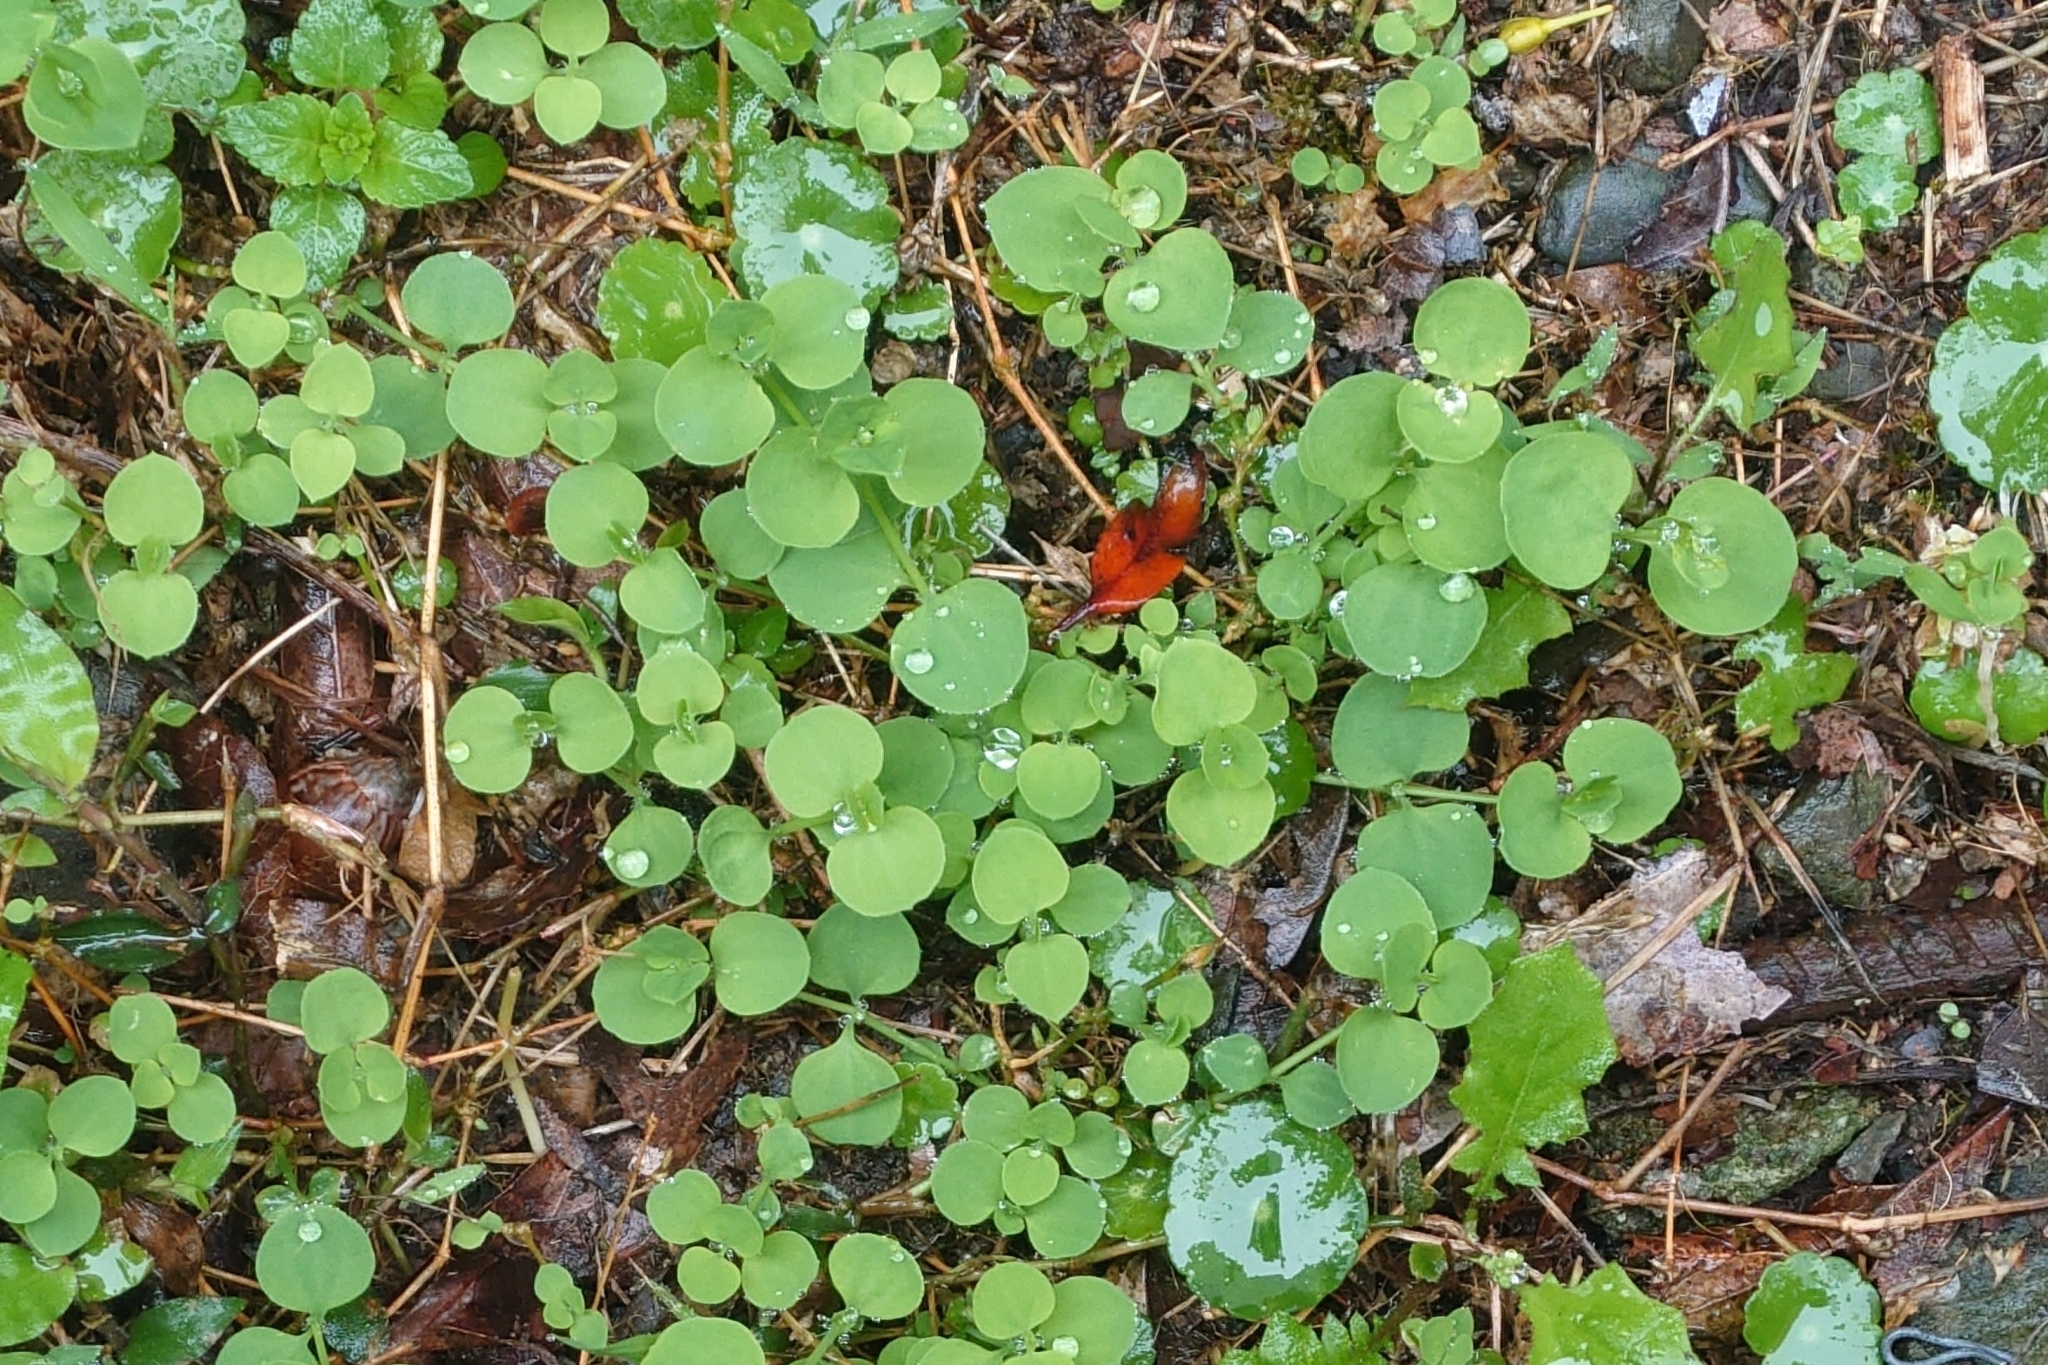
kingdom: Plantae
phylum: Tracheophyta
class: Magnoliopsida
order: Caryophyllales
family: Caryophyllaceae
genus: Drymaria
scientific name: Drymaria cordata
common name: Whitesnow
